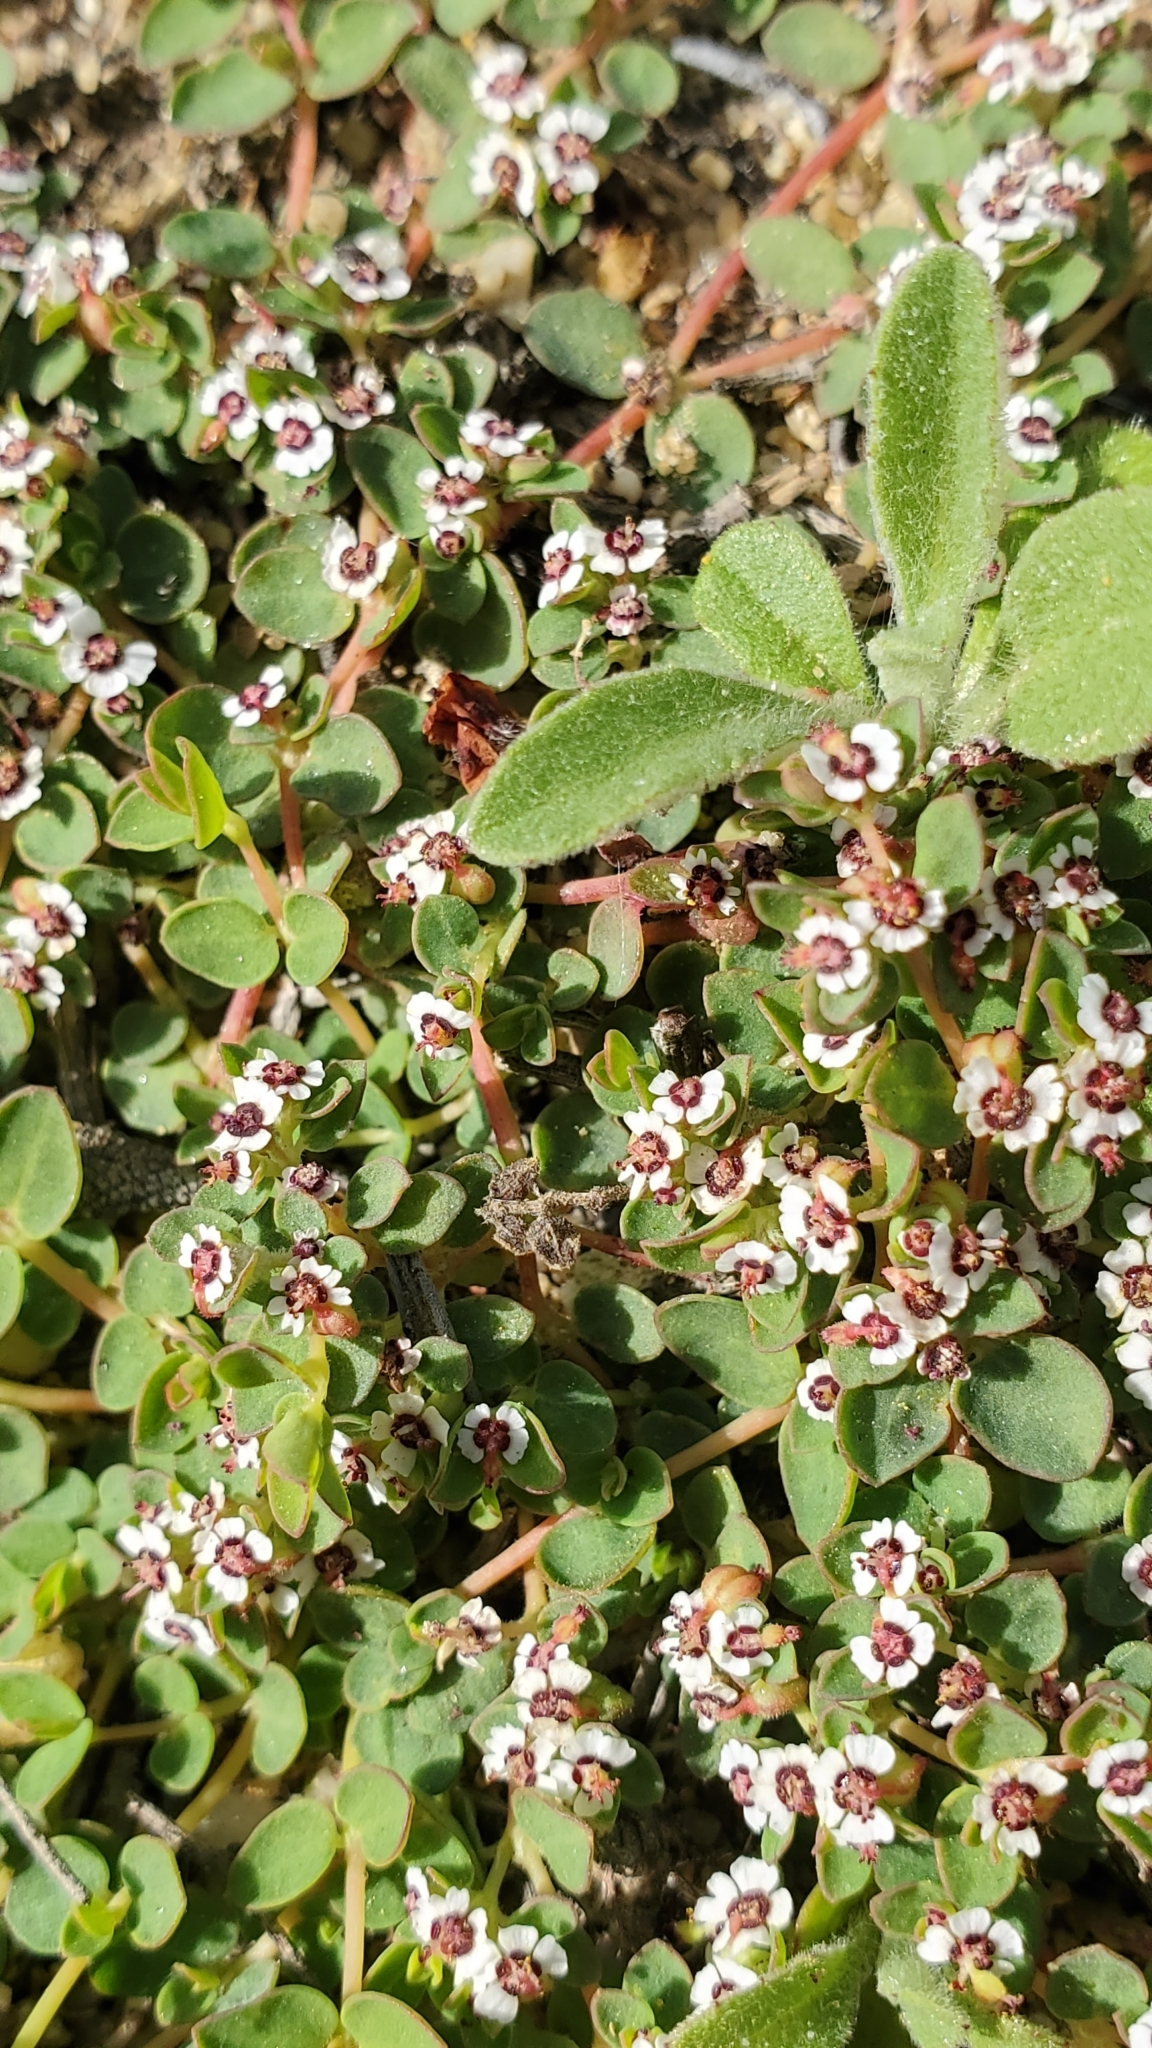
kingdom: Plantae
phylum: Tracheophyta
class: Magnoliopsida
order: Malpighiales
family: Euphorbiaceae
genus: Euphorbia
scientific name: Euphorbia polycarpa
